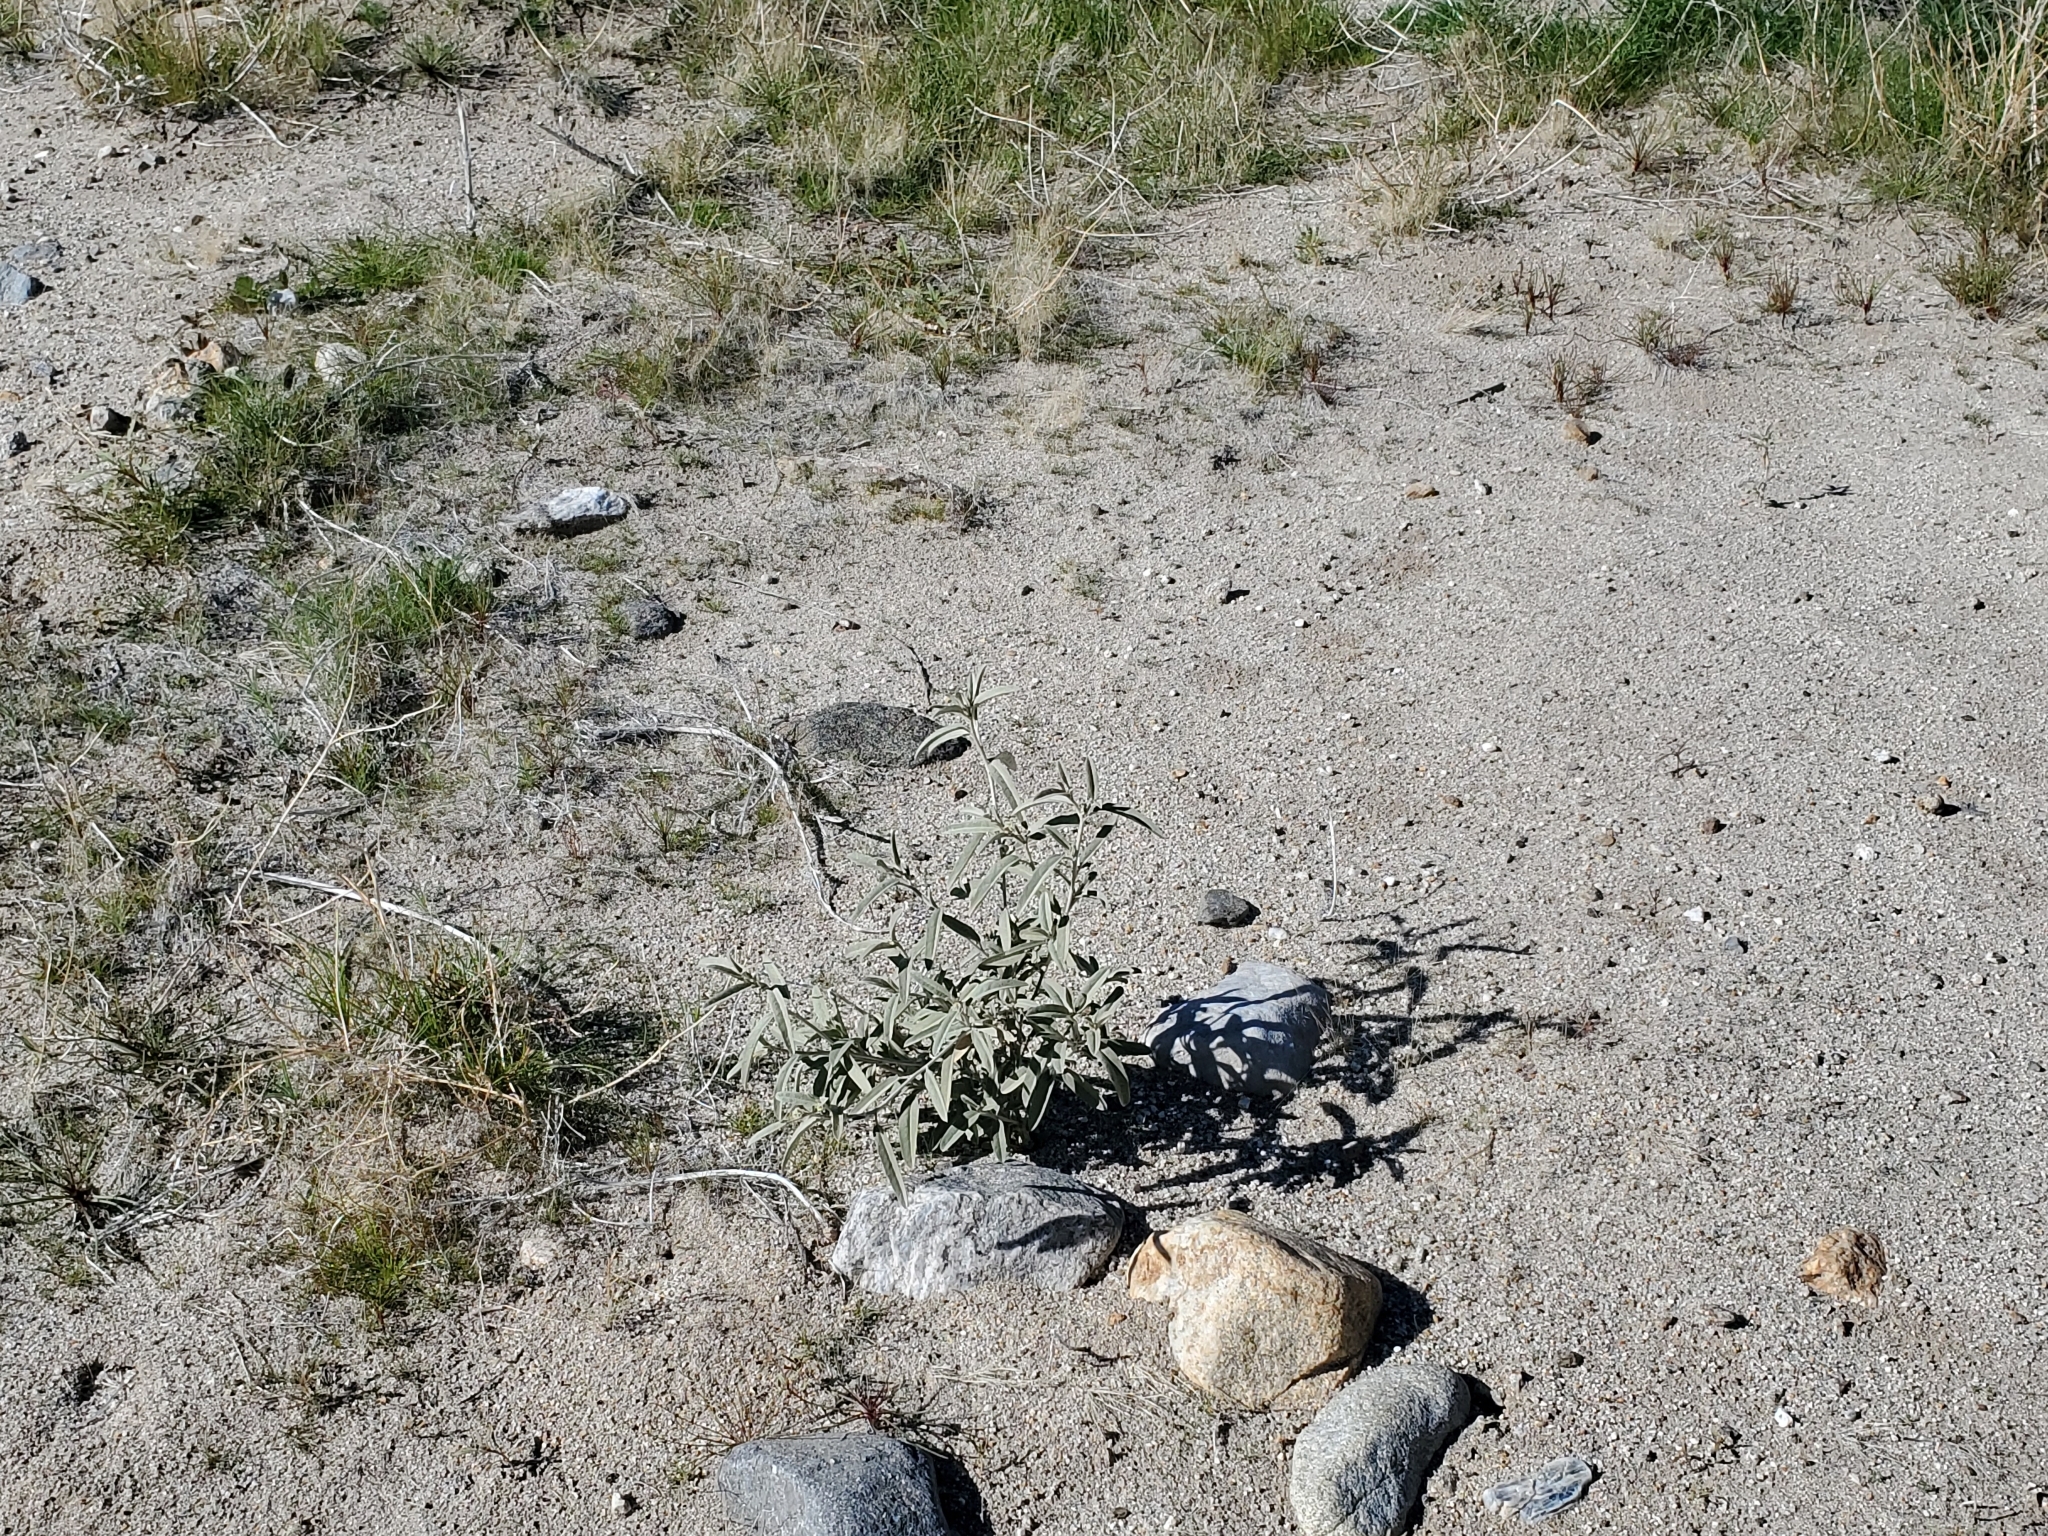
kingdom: Plantae
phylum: Tracheophyta
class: Magnoliopsida
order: Malpighiales
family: Euphorbiaceae
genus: Croton
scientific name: Croton californicus
